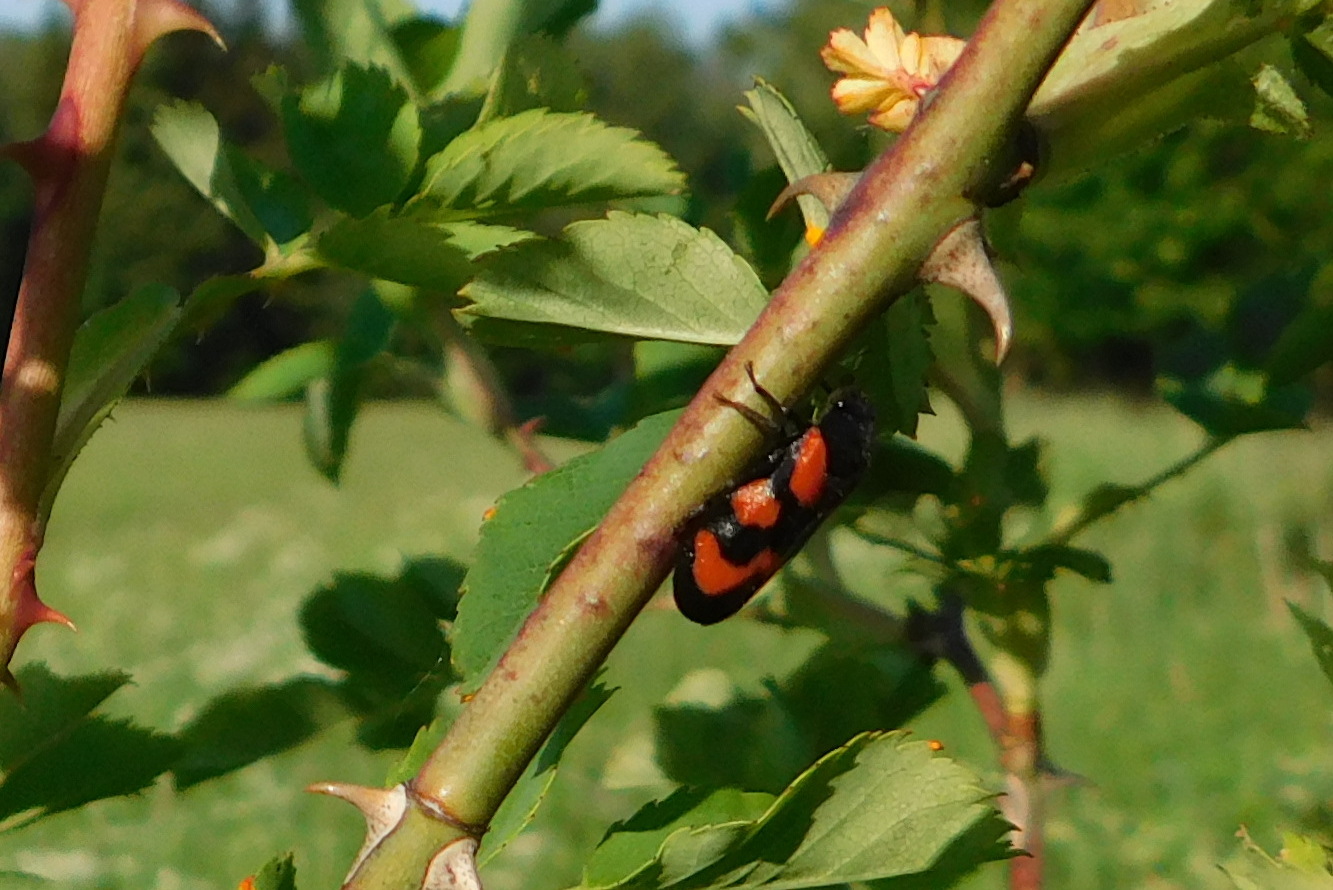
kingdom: Animalia
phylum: Arthropoda
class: Insecta
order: Hemiptera
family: Cercopidae
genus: Cercopis
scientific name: Cercopis vulnerata
